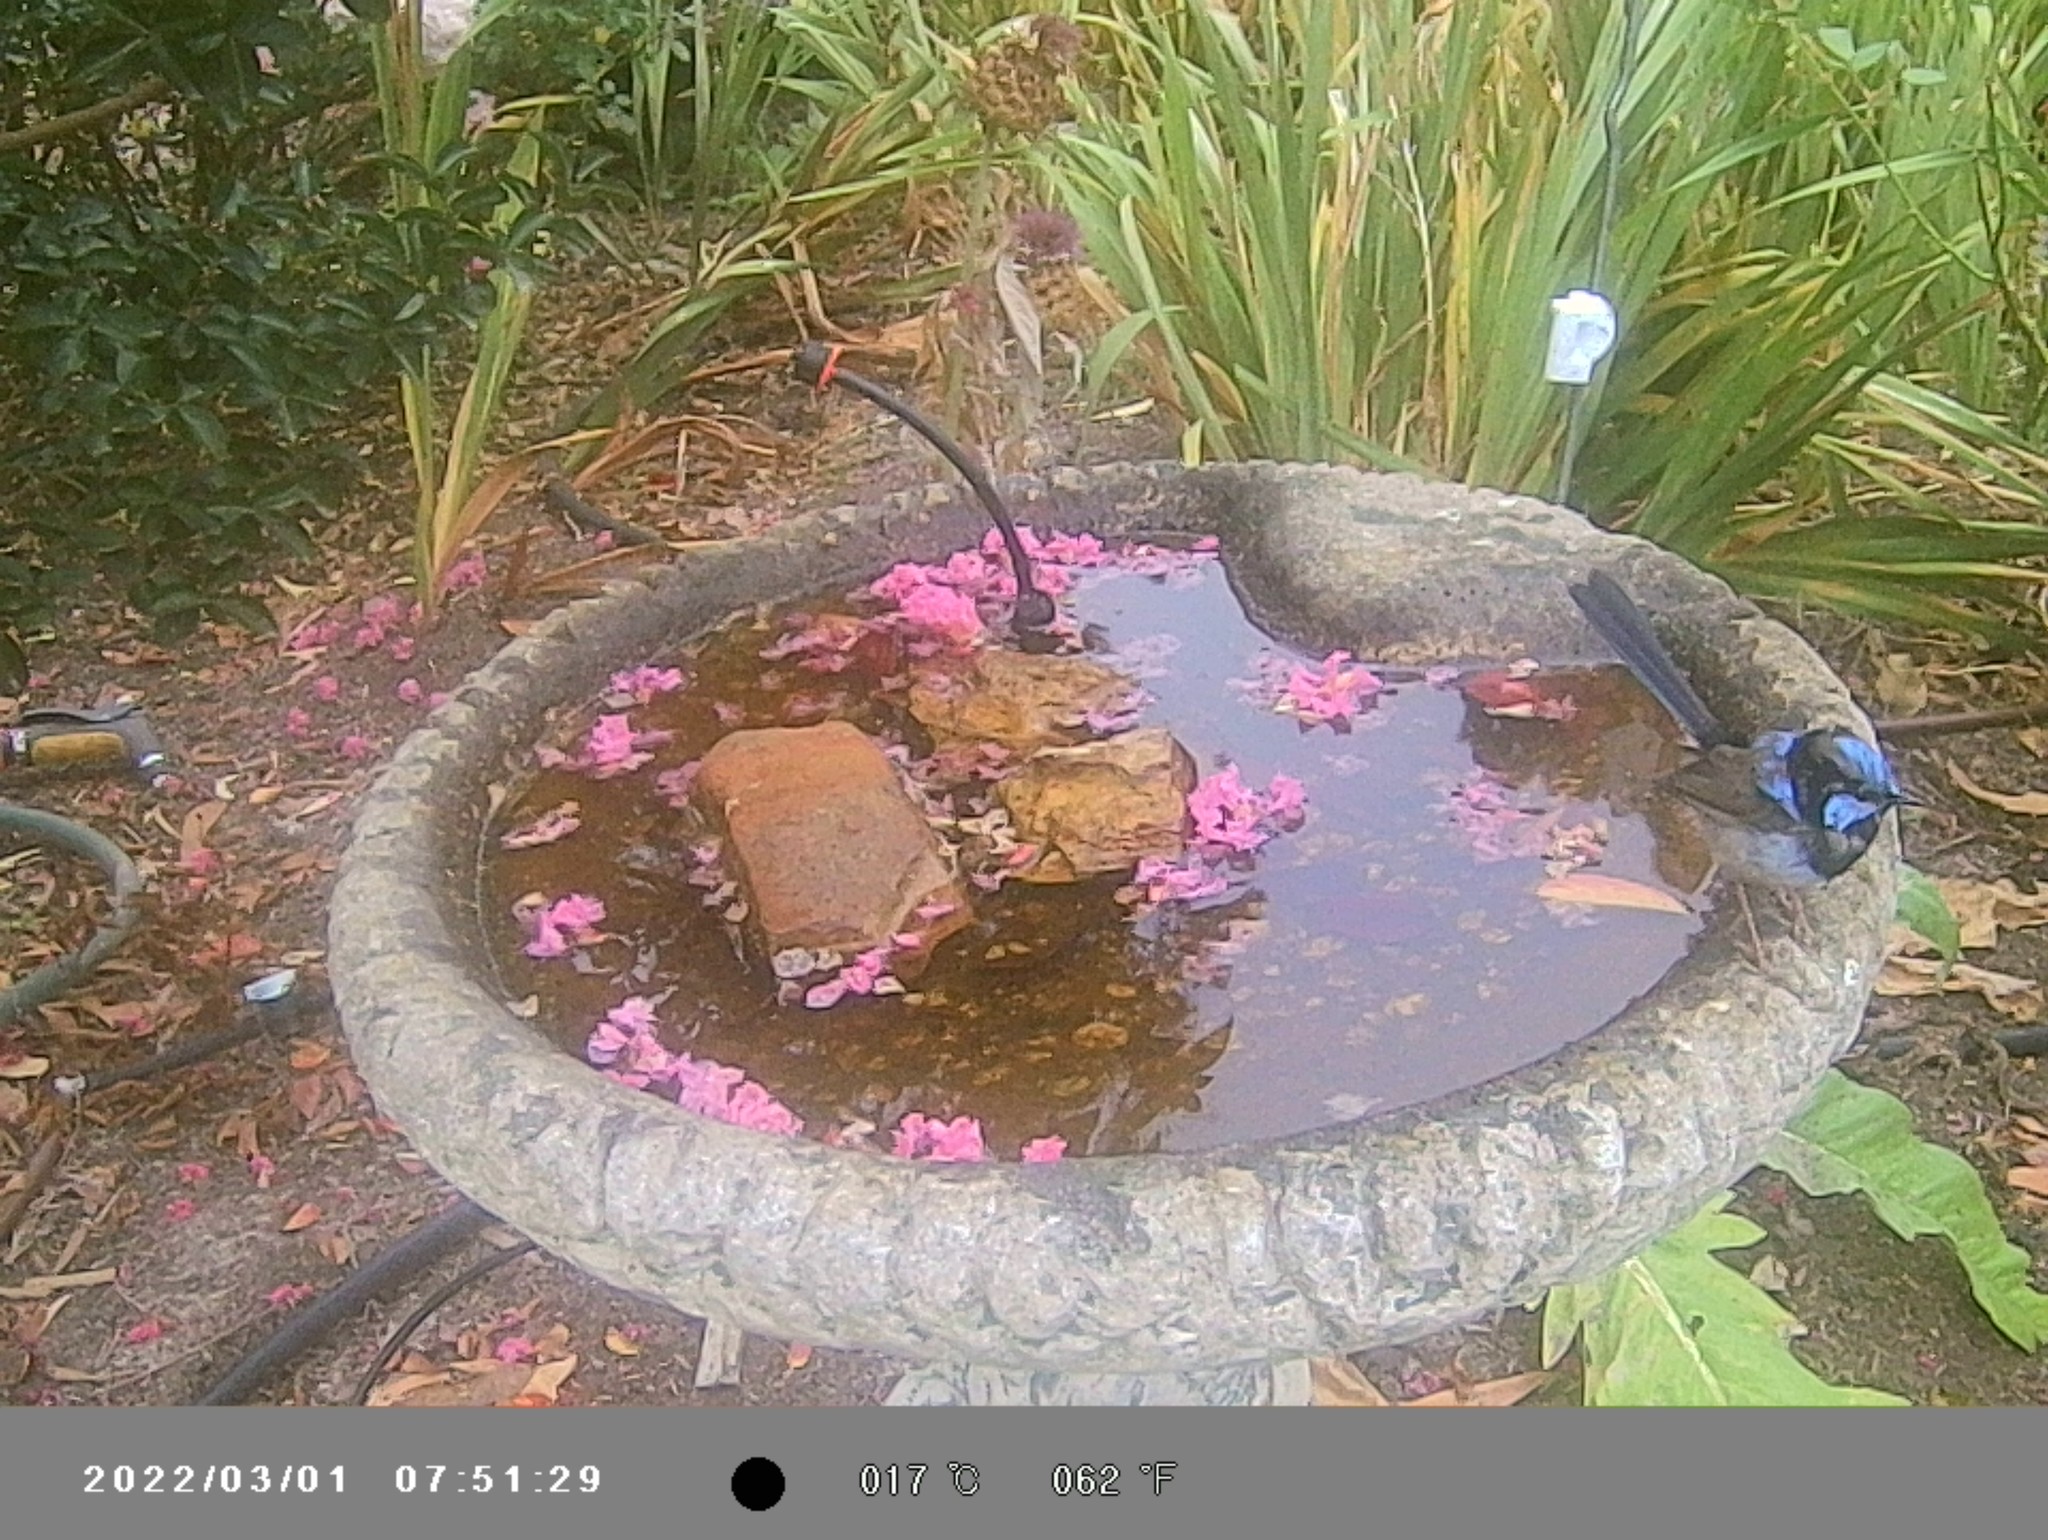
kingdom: Animalia
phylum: Chordata
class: Aves
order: Passeriformes
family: Maluridae
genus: Malurus
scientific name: Malurus cyaneus
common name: Superb fairywren
